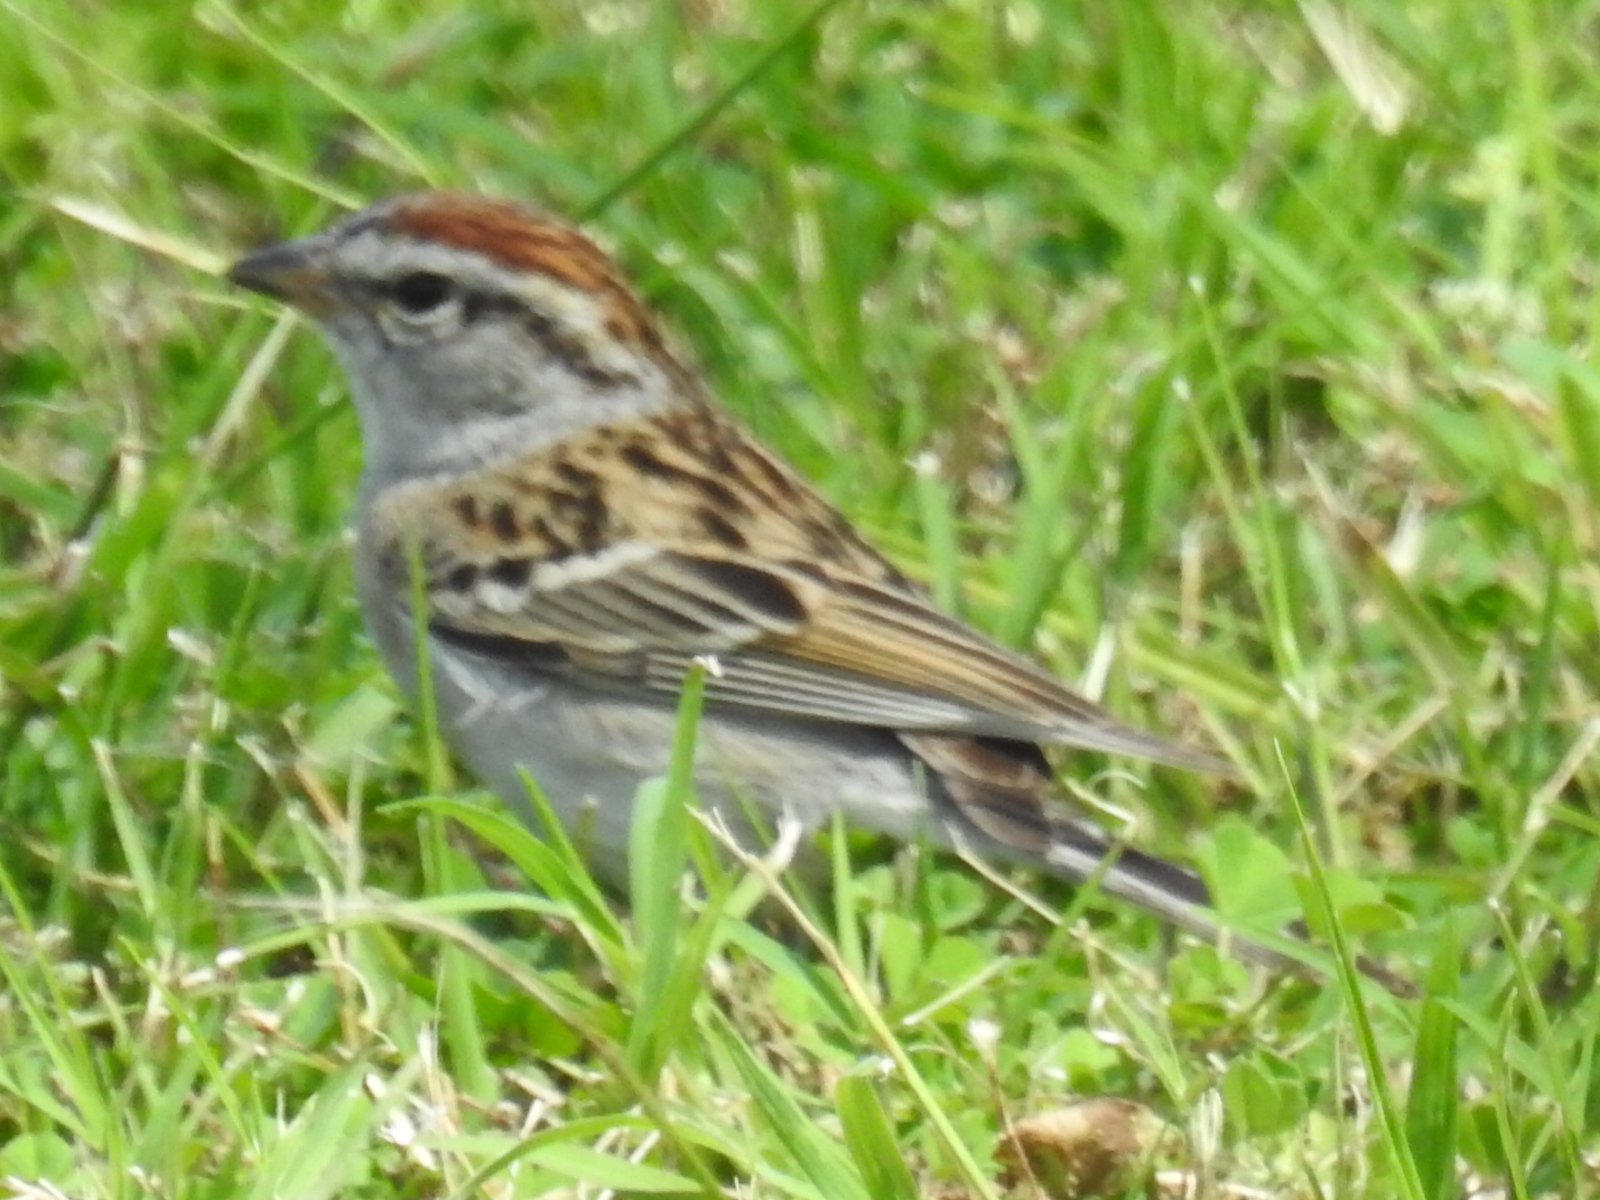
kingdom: Animalia
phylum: Chordata
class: Aves
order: Passeriformes
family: Passerellidae
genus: Spizella
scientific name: Spizella passerina
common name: Chipping sparrow
